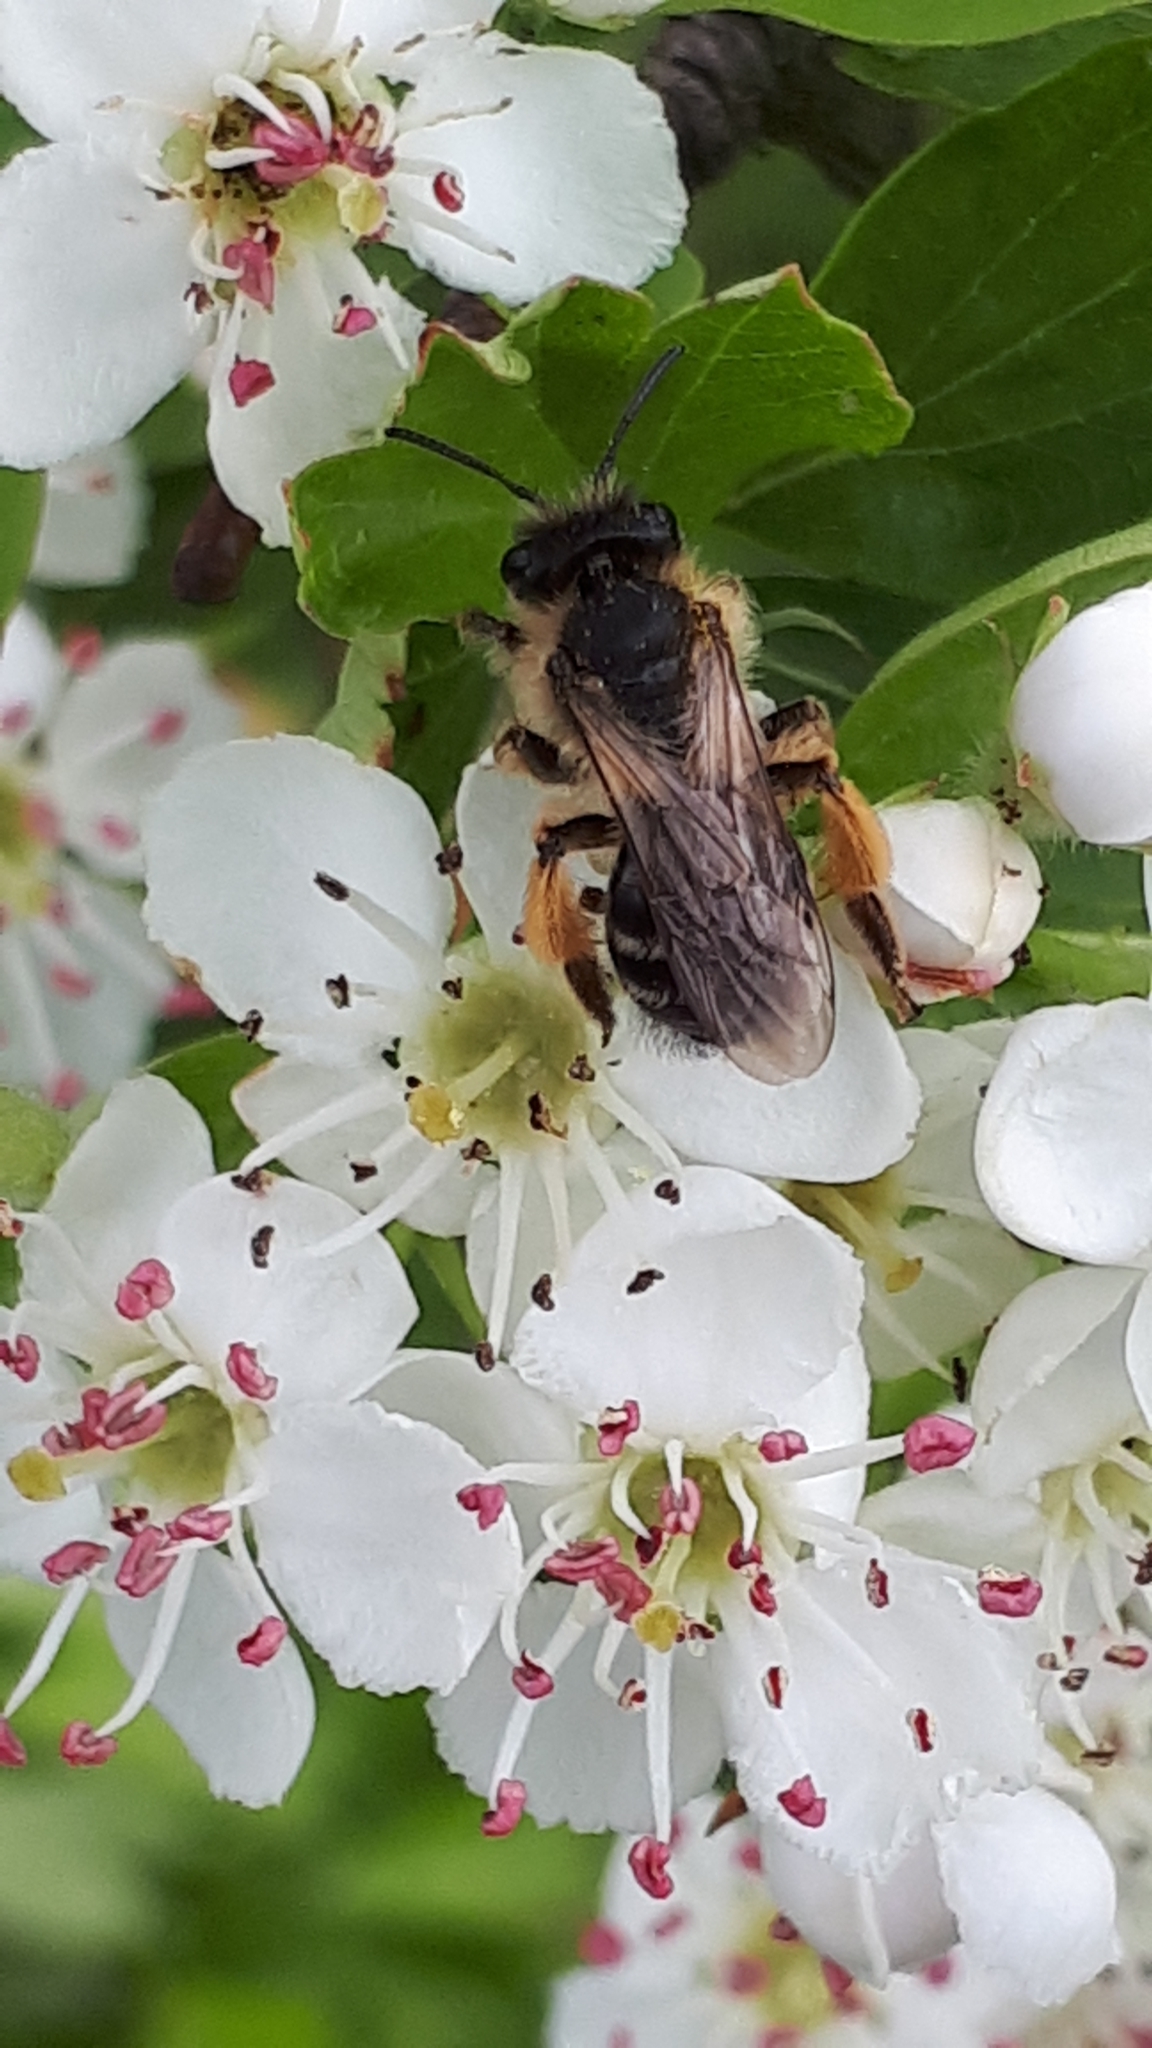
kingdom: Animalia
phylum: Arthropoda
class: Insecta
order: Hymenoptera
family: Andrenidae
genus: Andrena
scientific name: Andrena flavipes
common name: Yellow-legged mining bee
